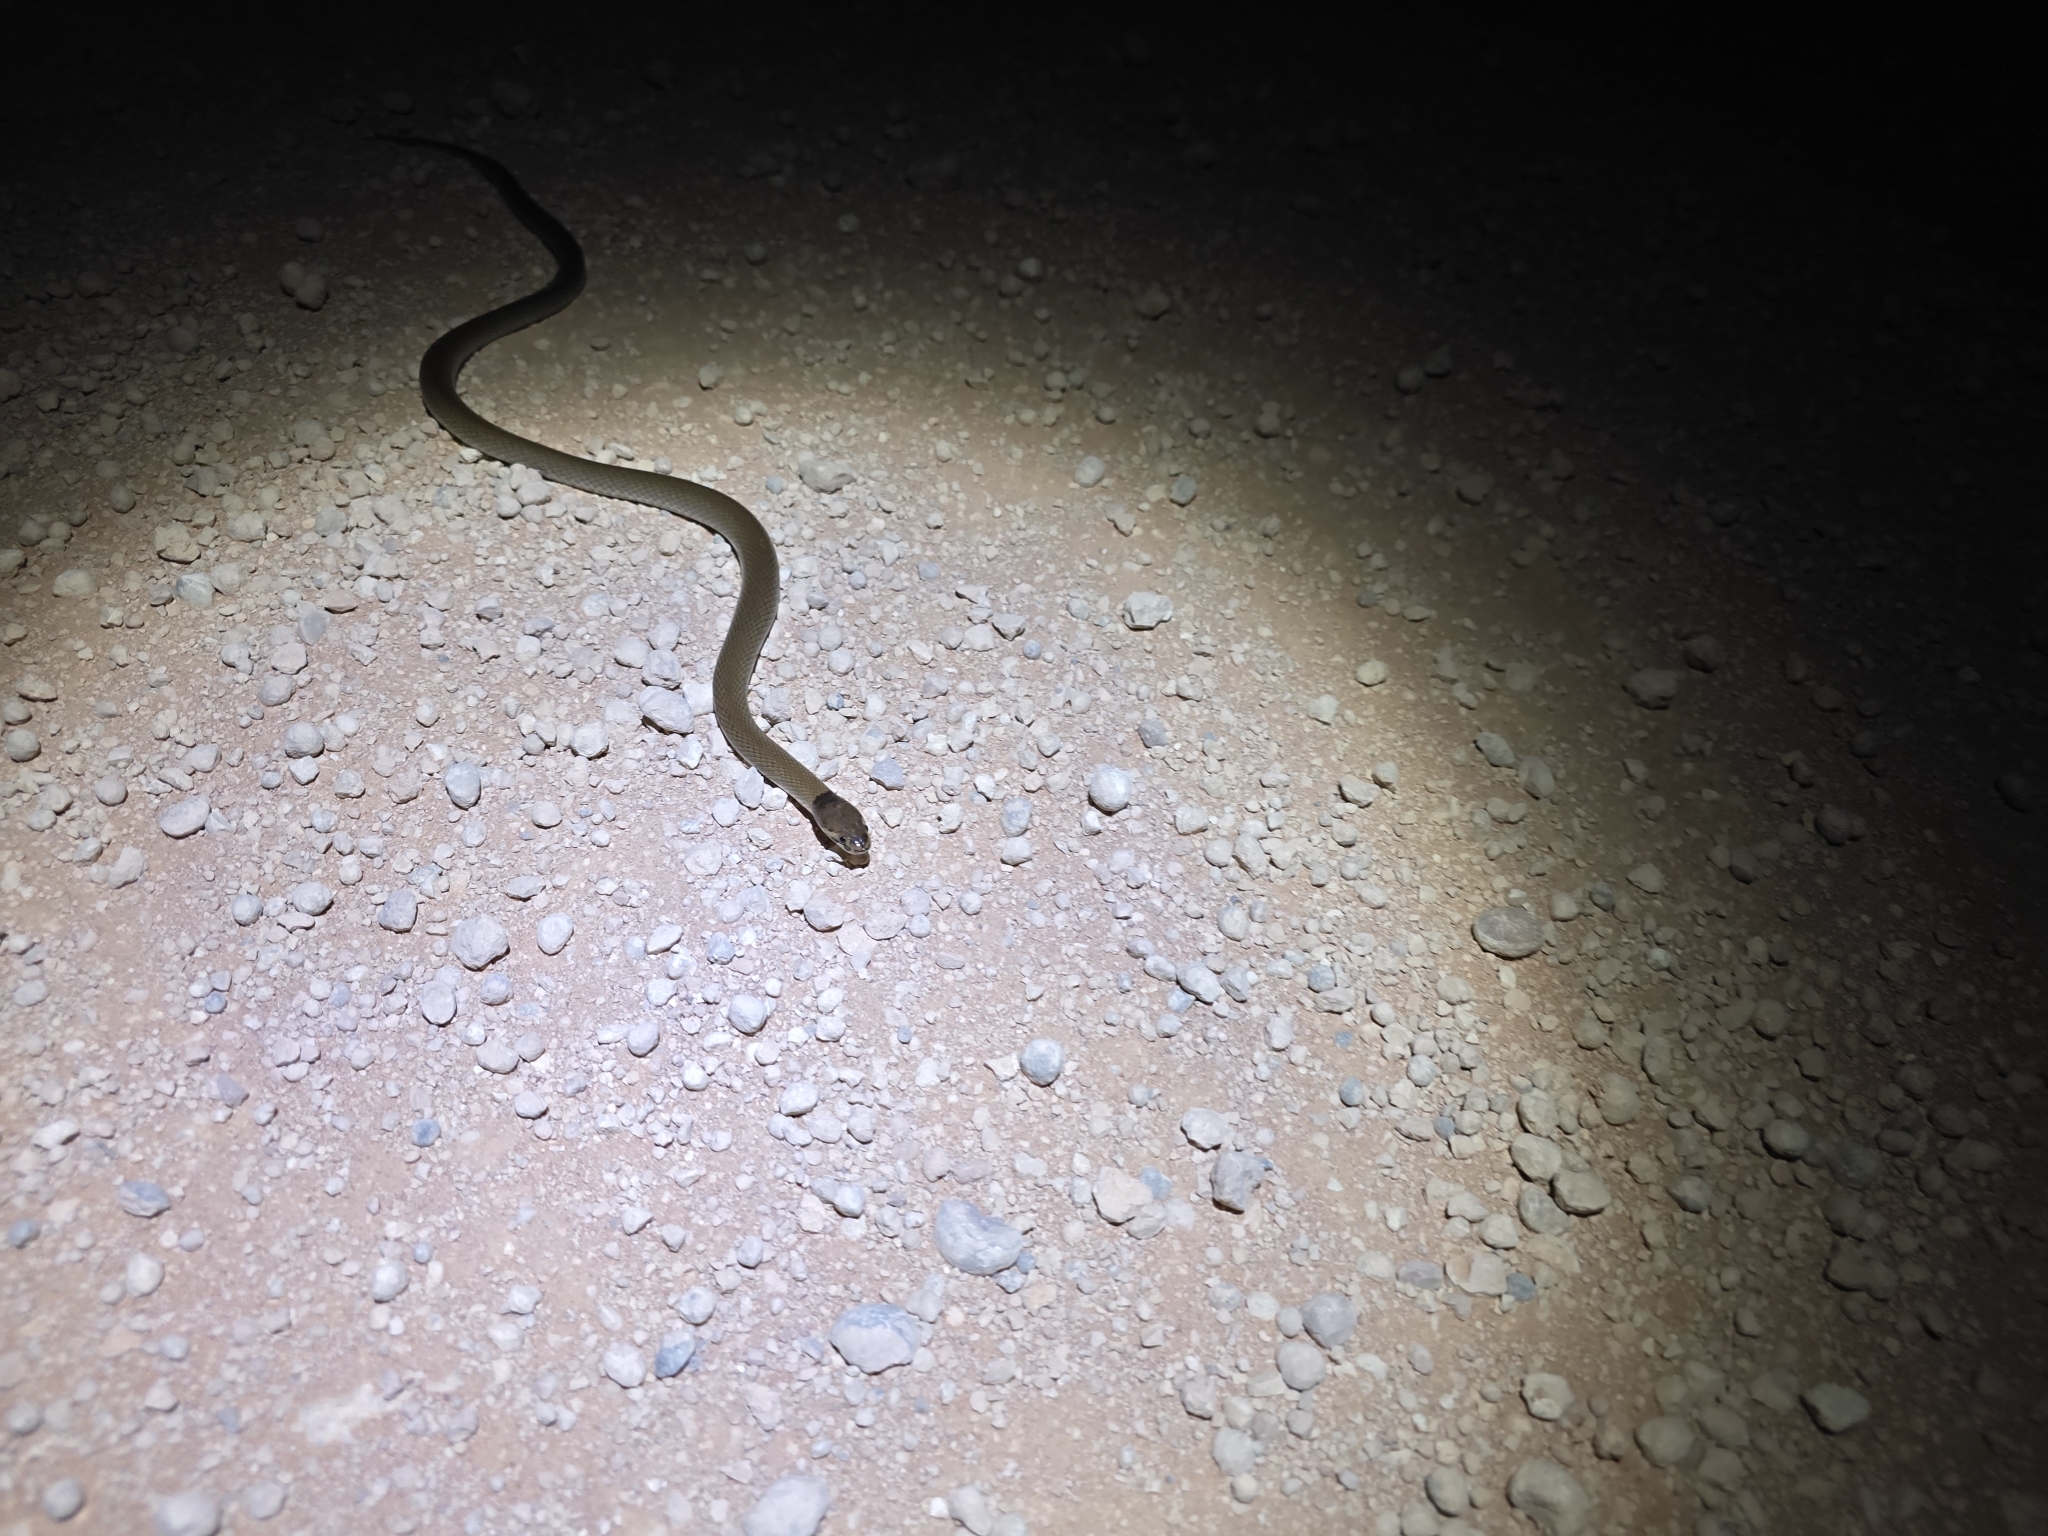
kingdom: Animalia
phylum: Chordata
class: Squamata
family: Elapidae
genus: Suta
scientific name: Suta suta
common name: Curl snake
